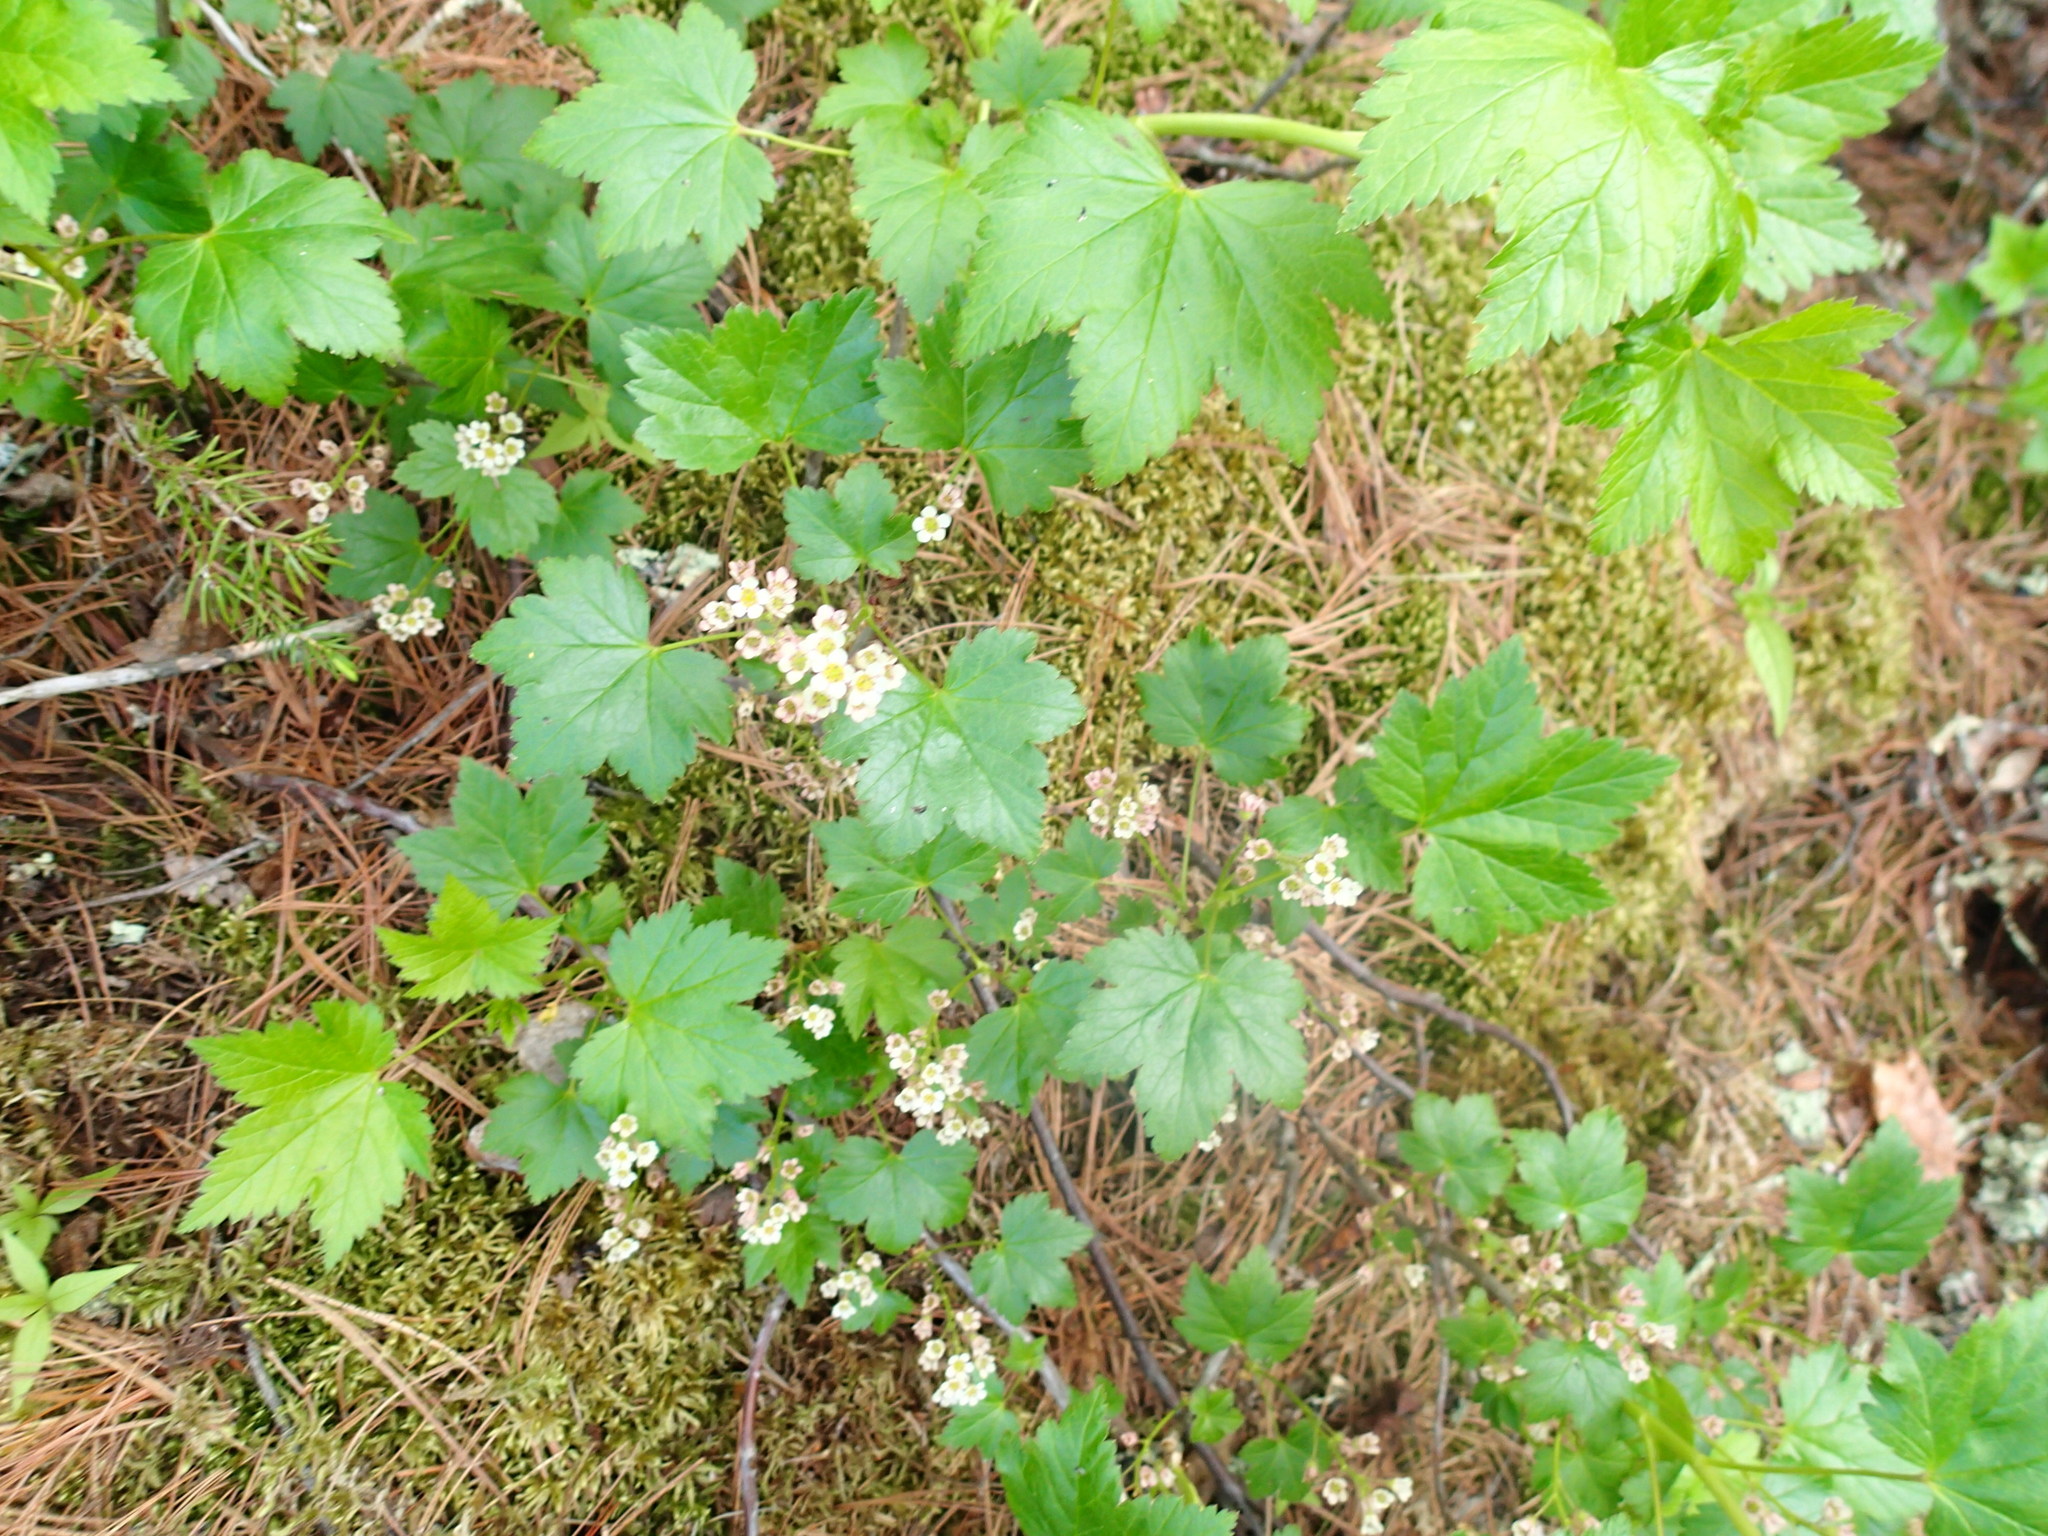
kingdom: Plantae
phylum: Tracheophyta
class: Magnoliopsida
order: Saxifragales
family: Grossulariaceae
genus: Ribes
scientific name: Ribes glandulosum
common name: Skunk currant
